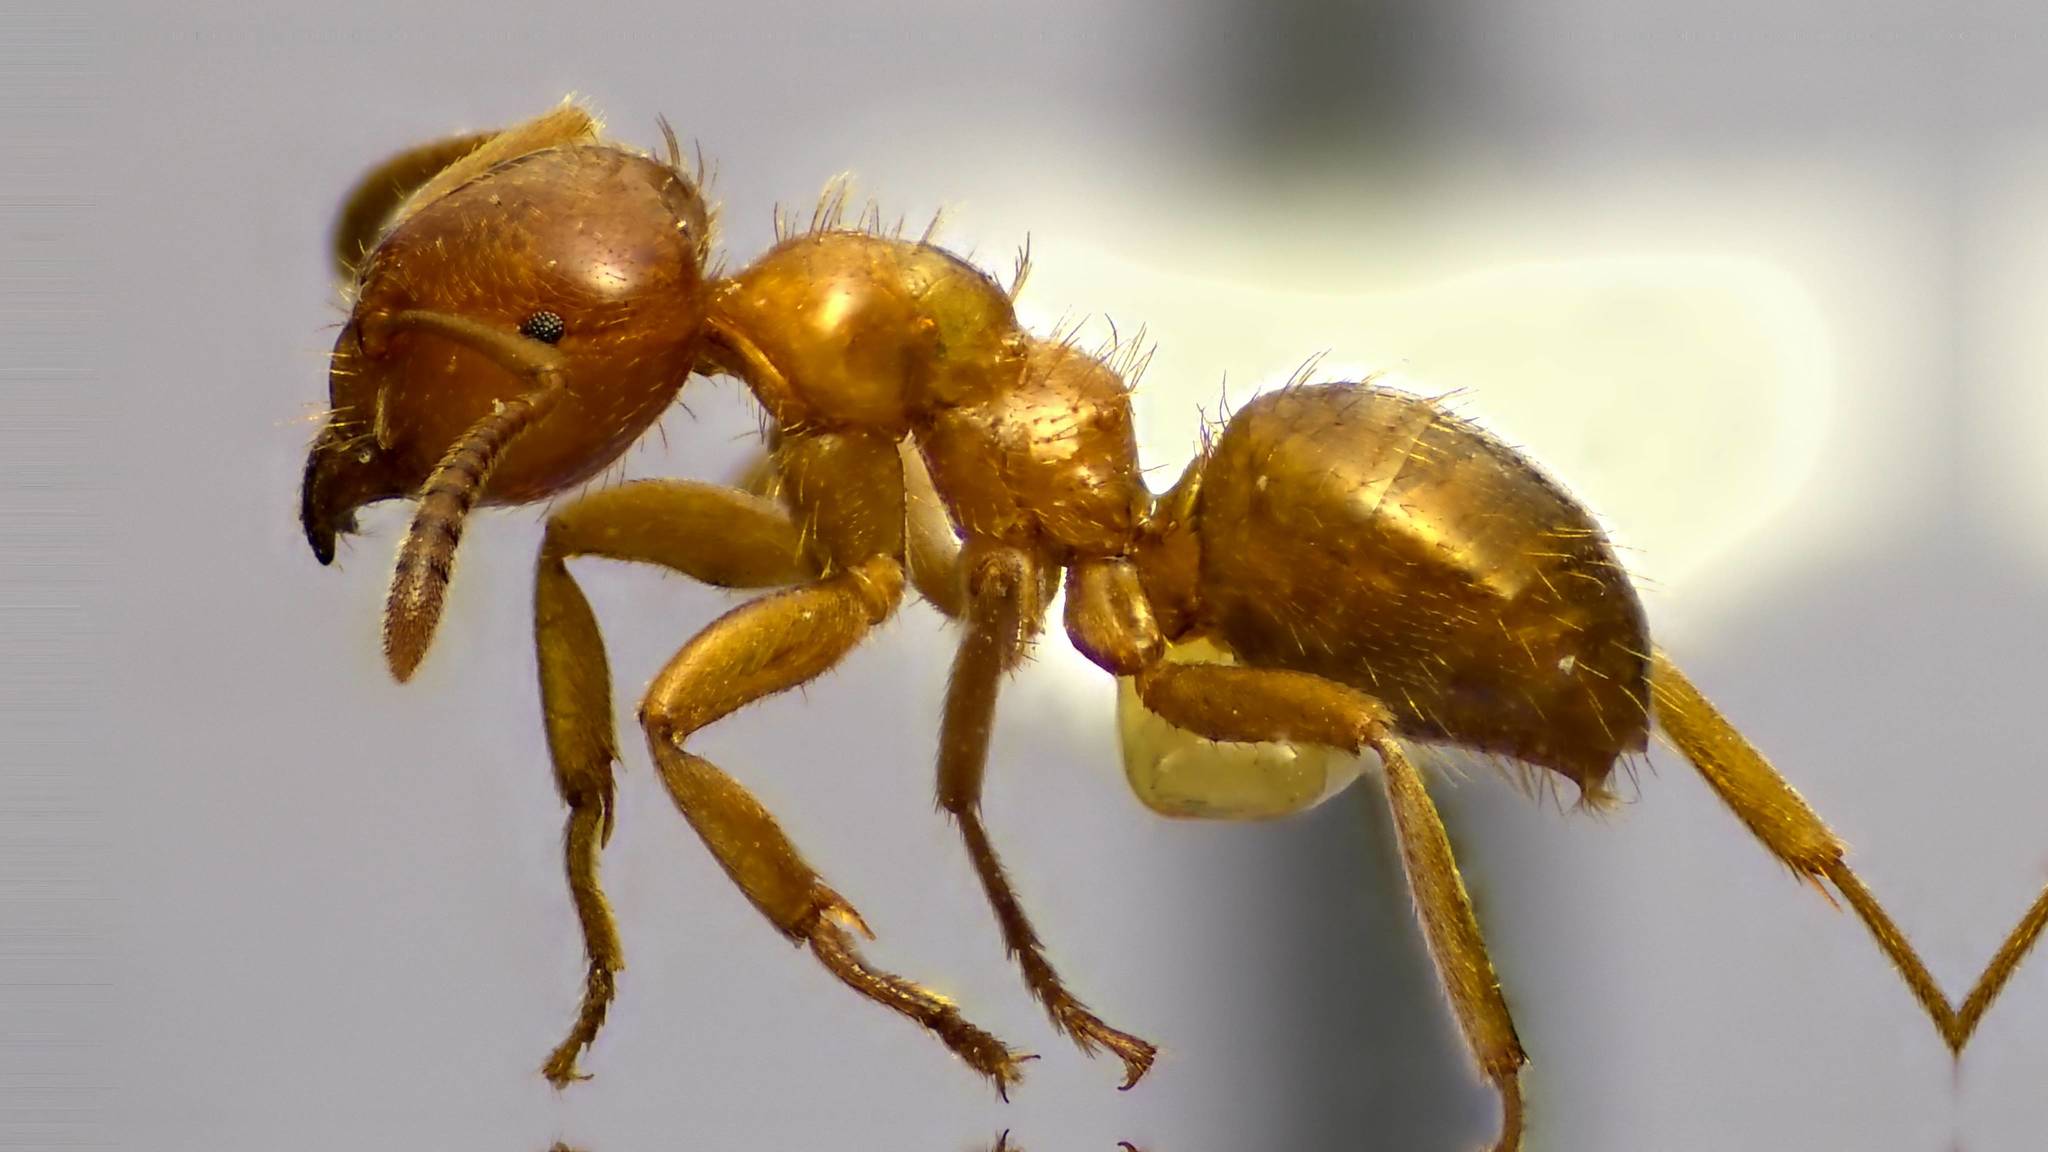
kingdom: Animalia
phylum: Arthropoda
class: Insecta
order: Hymenoptera
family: Formicidae
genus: Lasius
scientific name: Lasius claviger
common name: Common citronella ant
